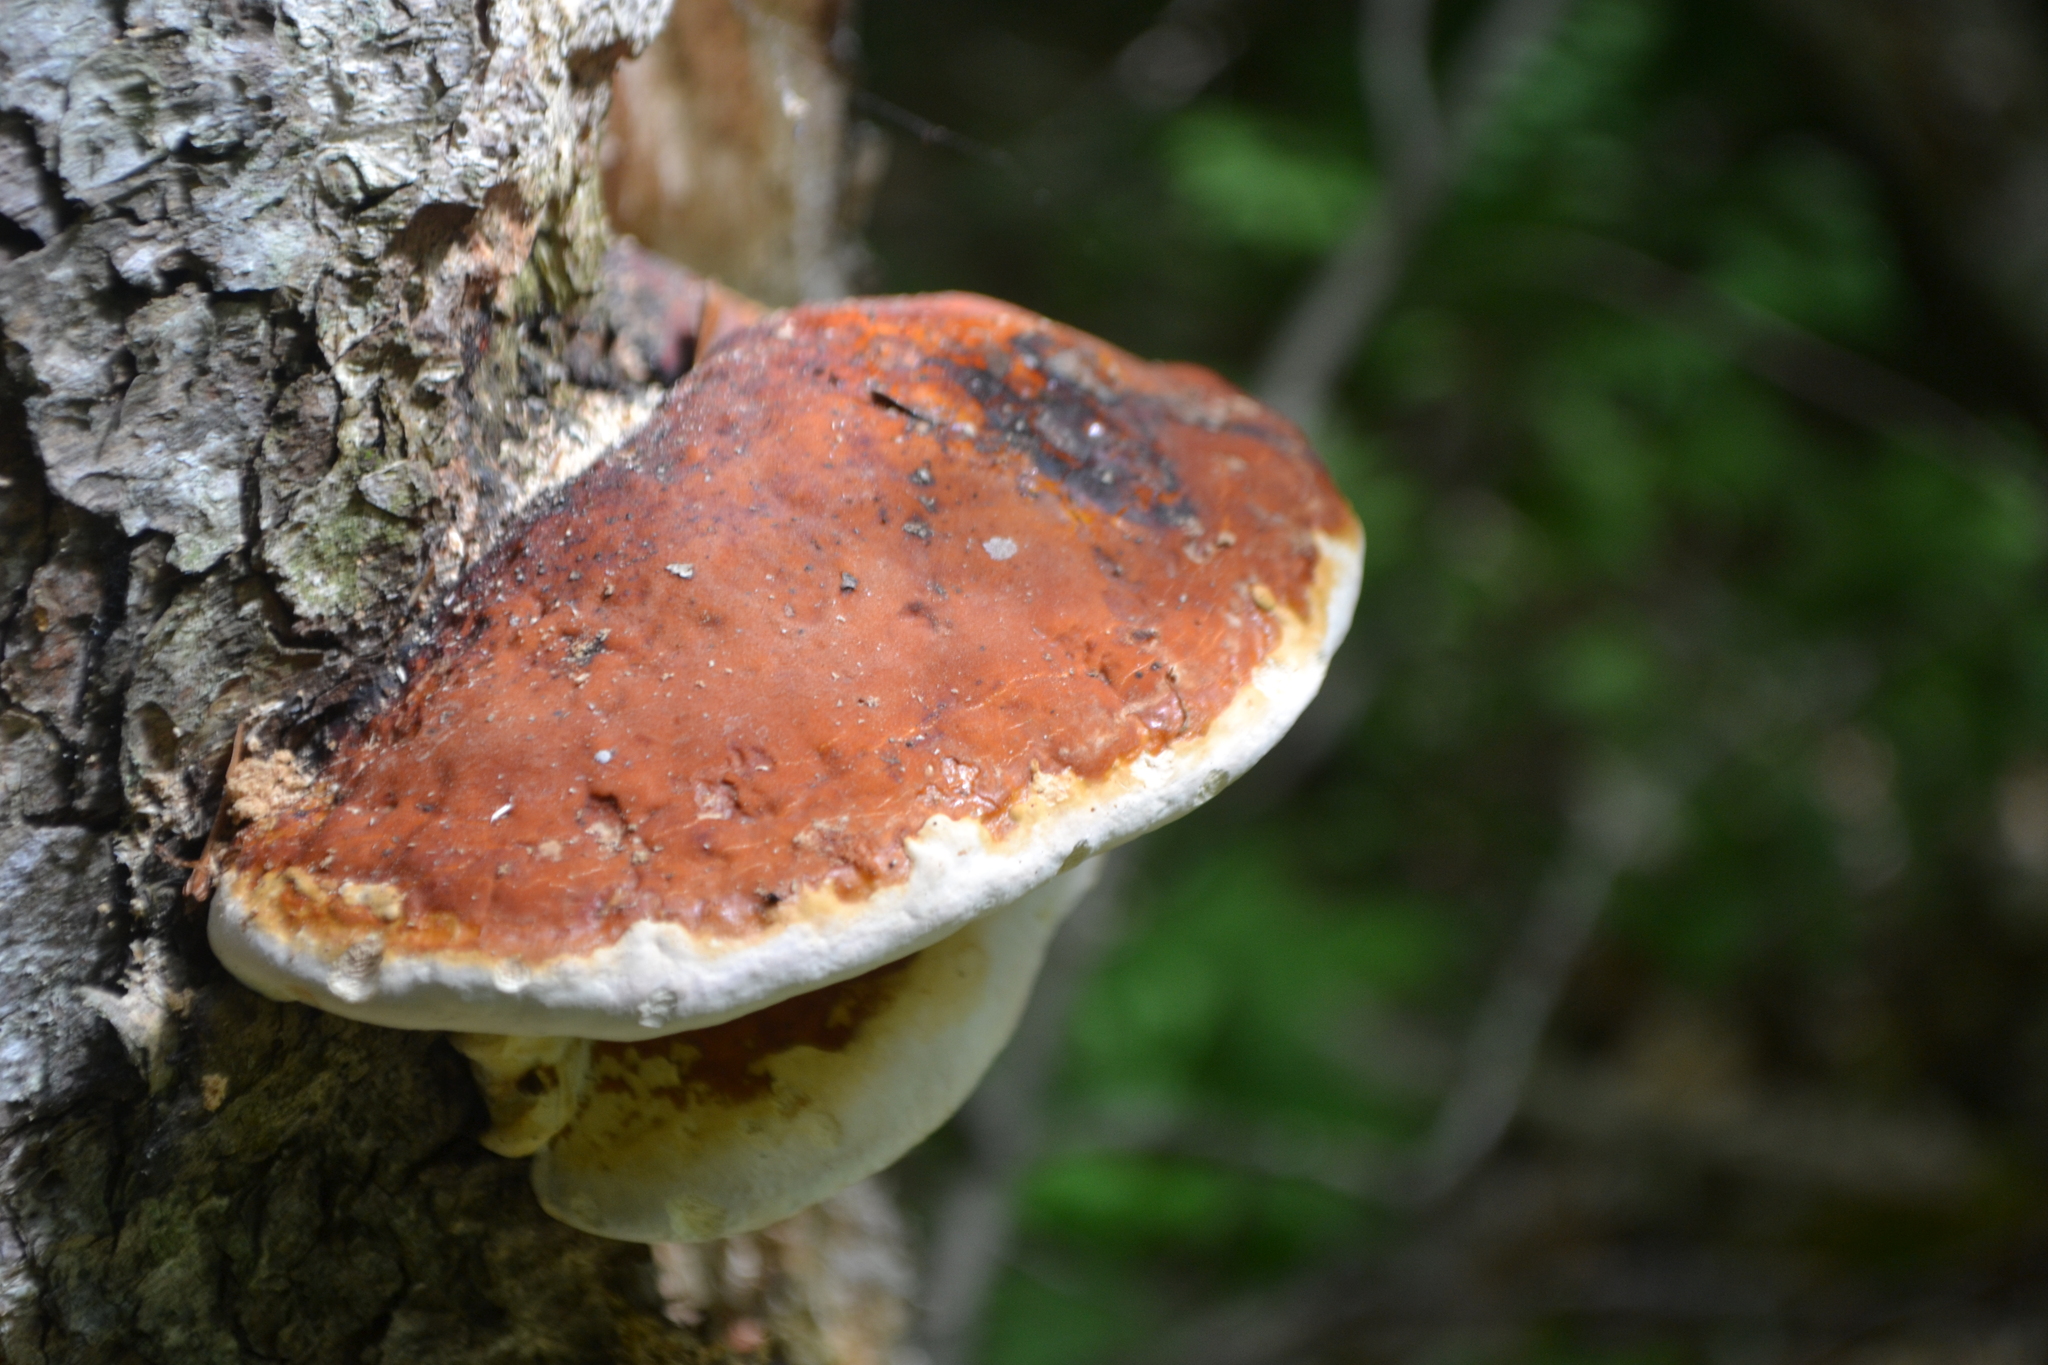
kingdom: Fungi
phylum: Basidiomycota
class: Agaricomycetes
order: Polyporales
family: Fomitopsidaceae
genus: Fomitopsis
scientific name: Fomitopsis mounceae
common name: Northern red belt
